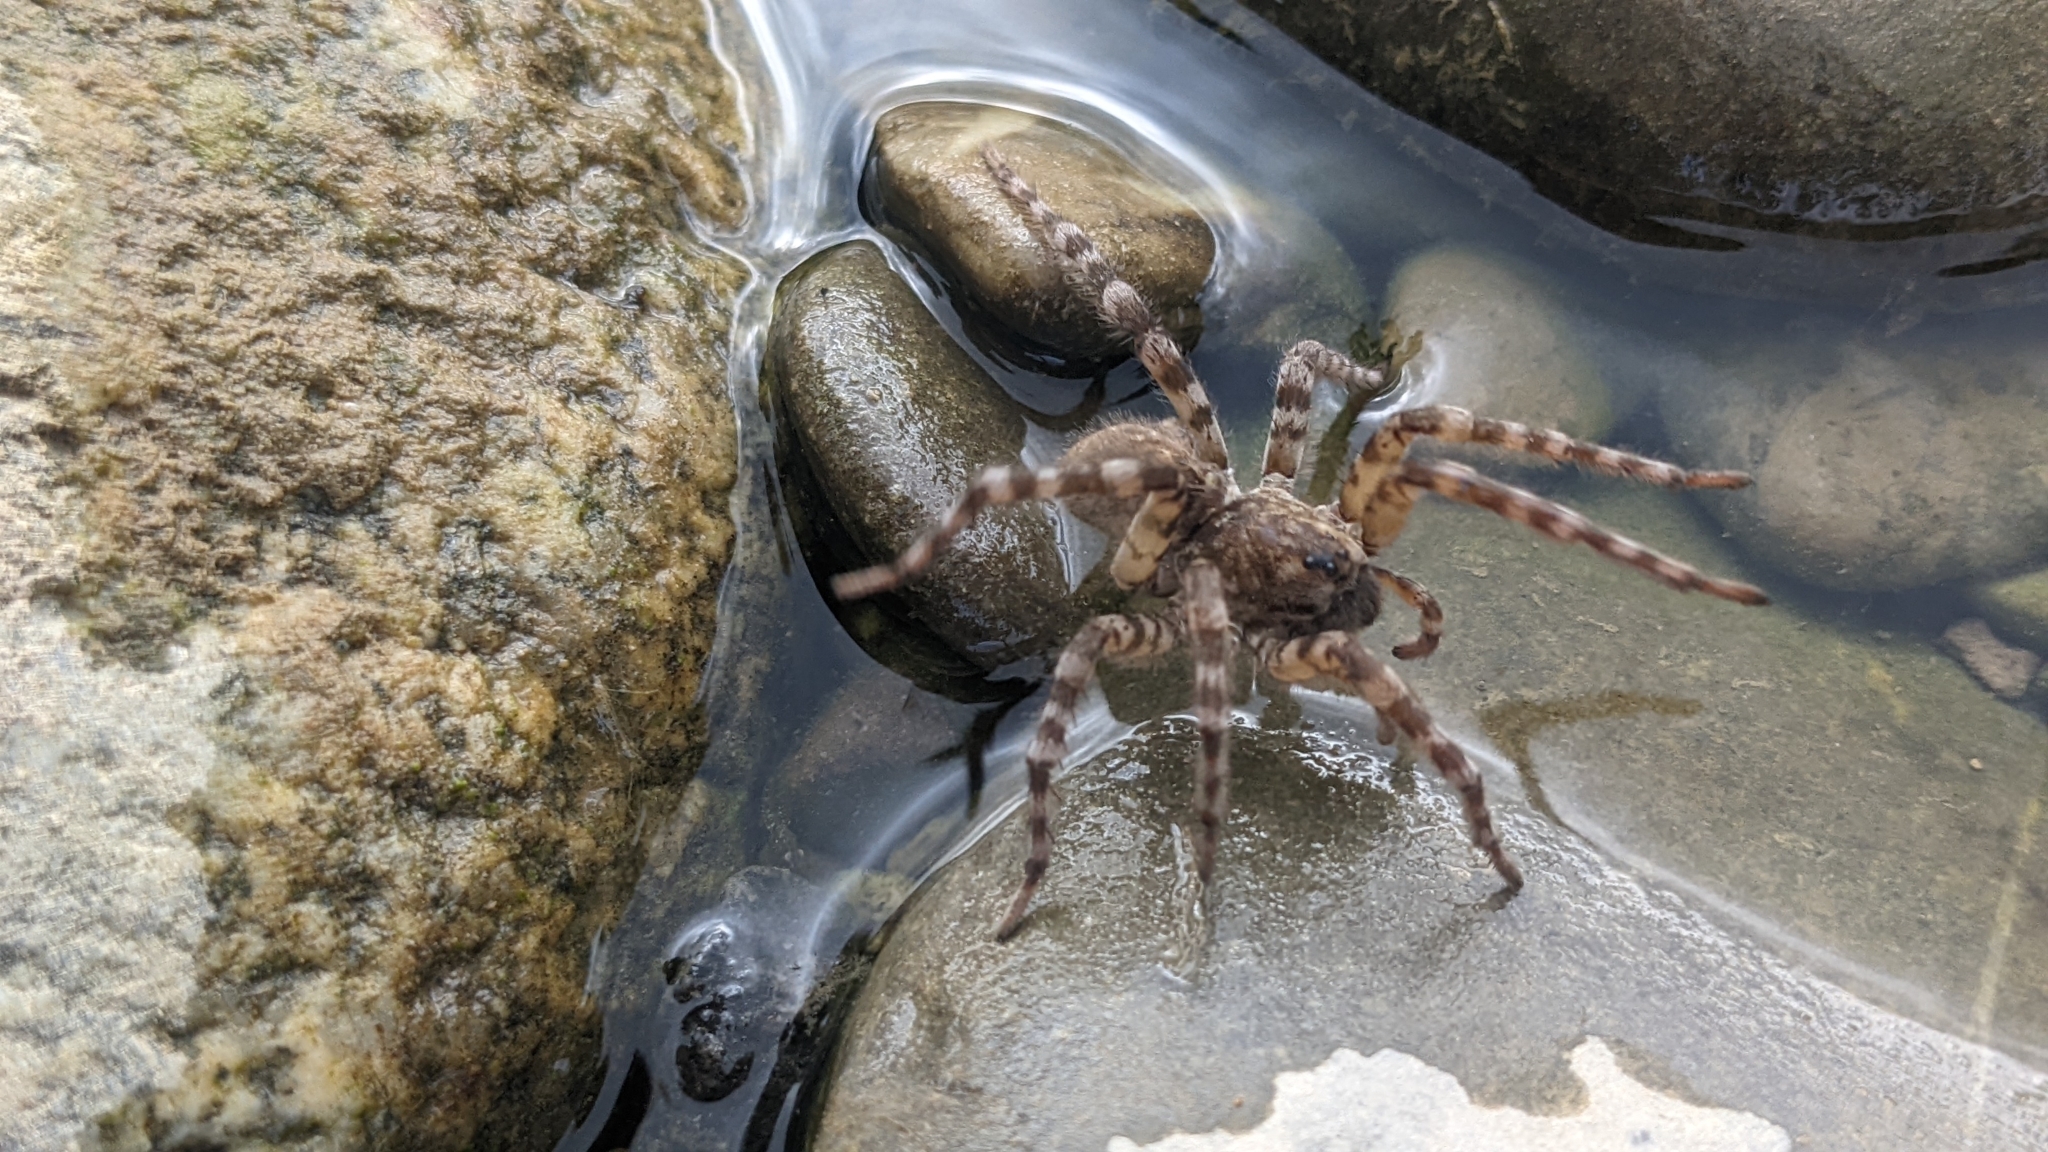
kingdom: Animalia
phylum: Arthropoda
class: Arachnida
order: Araneae
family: Lycosidae
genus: Arctosa
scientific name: Arctosa cinerea
